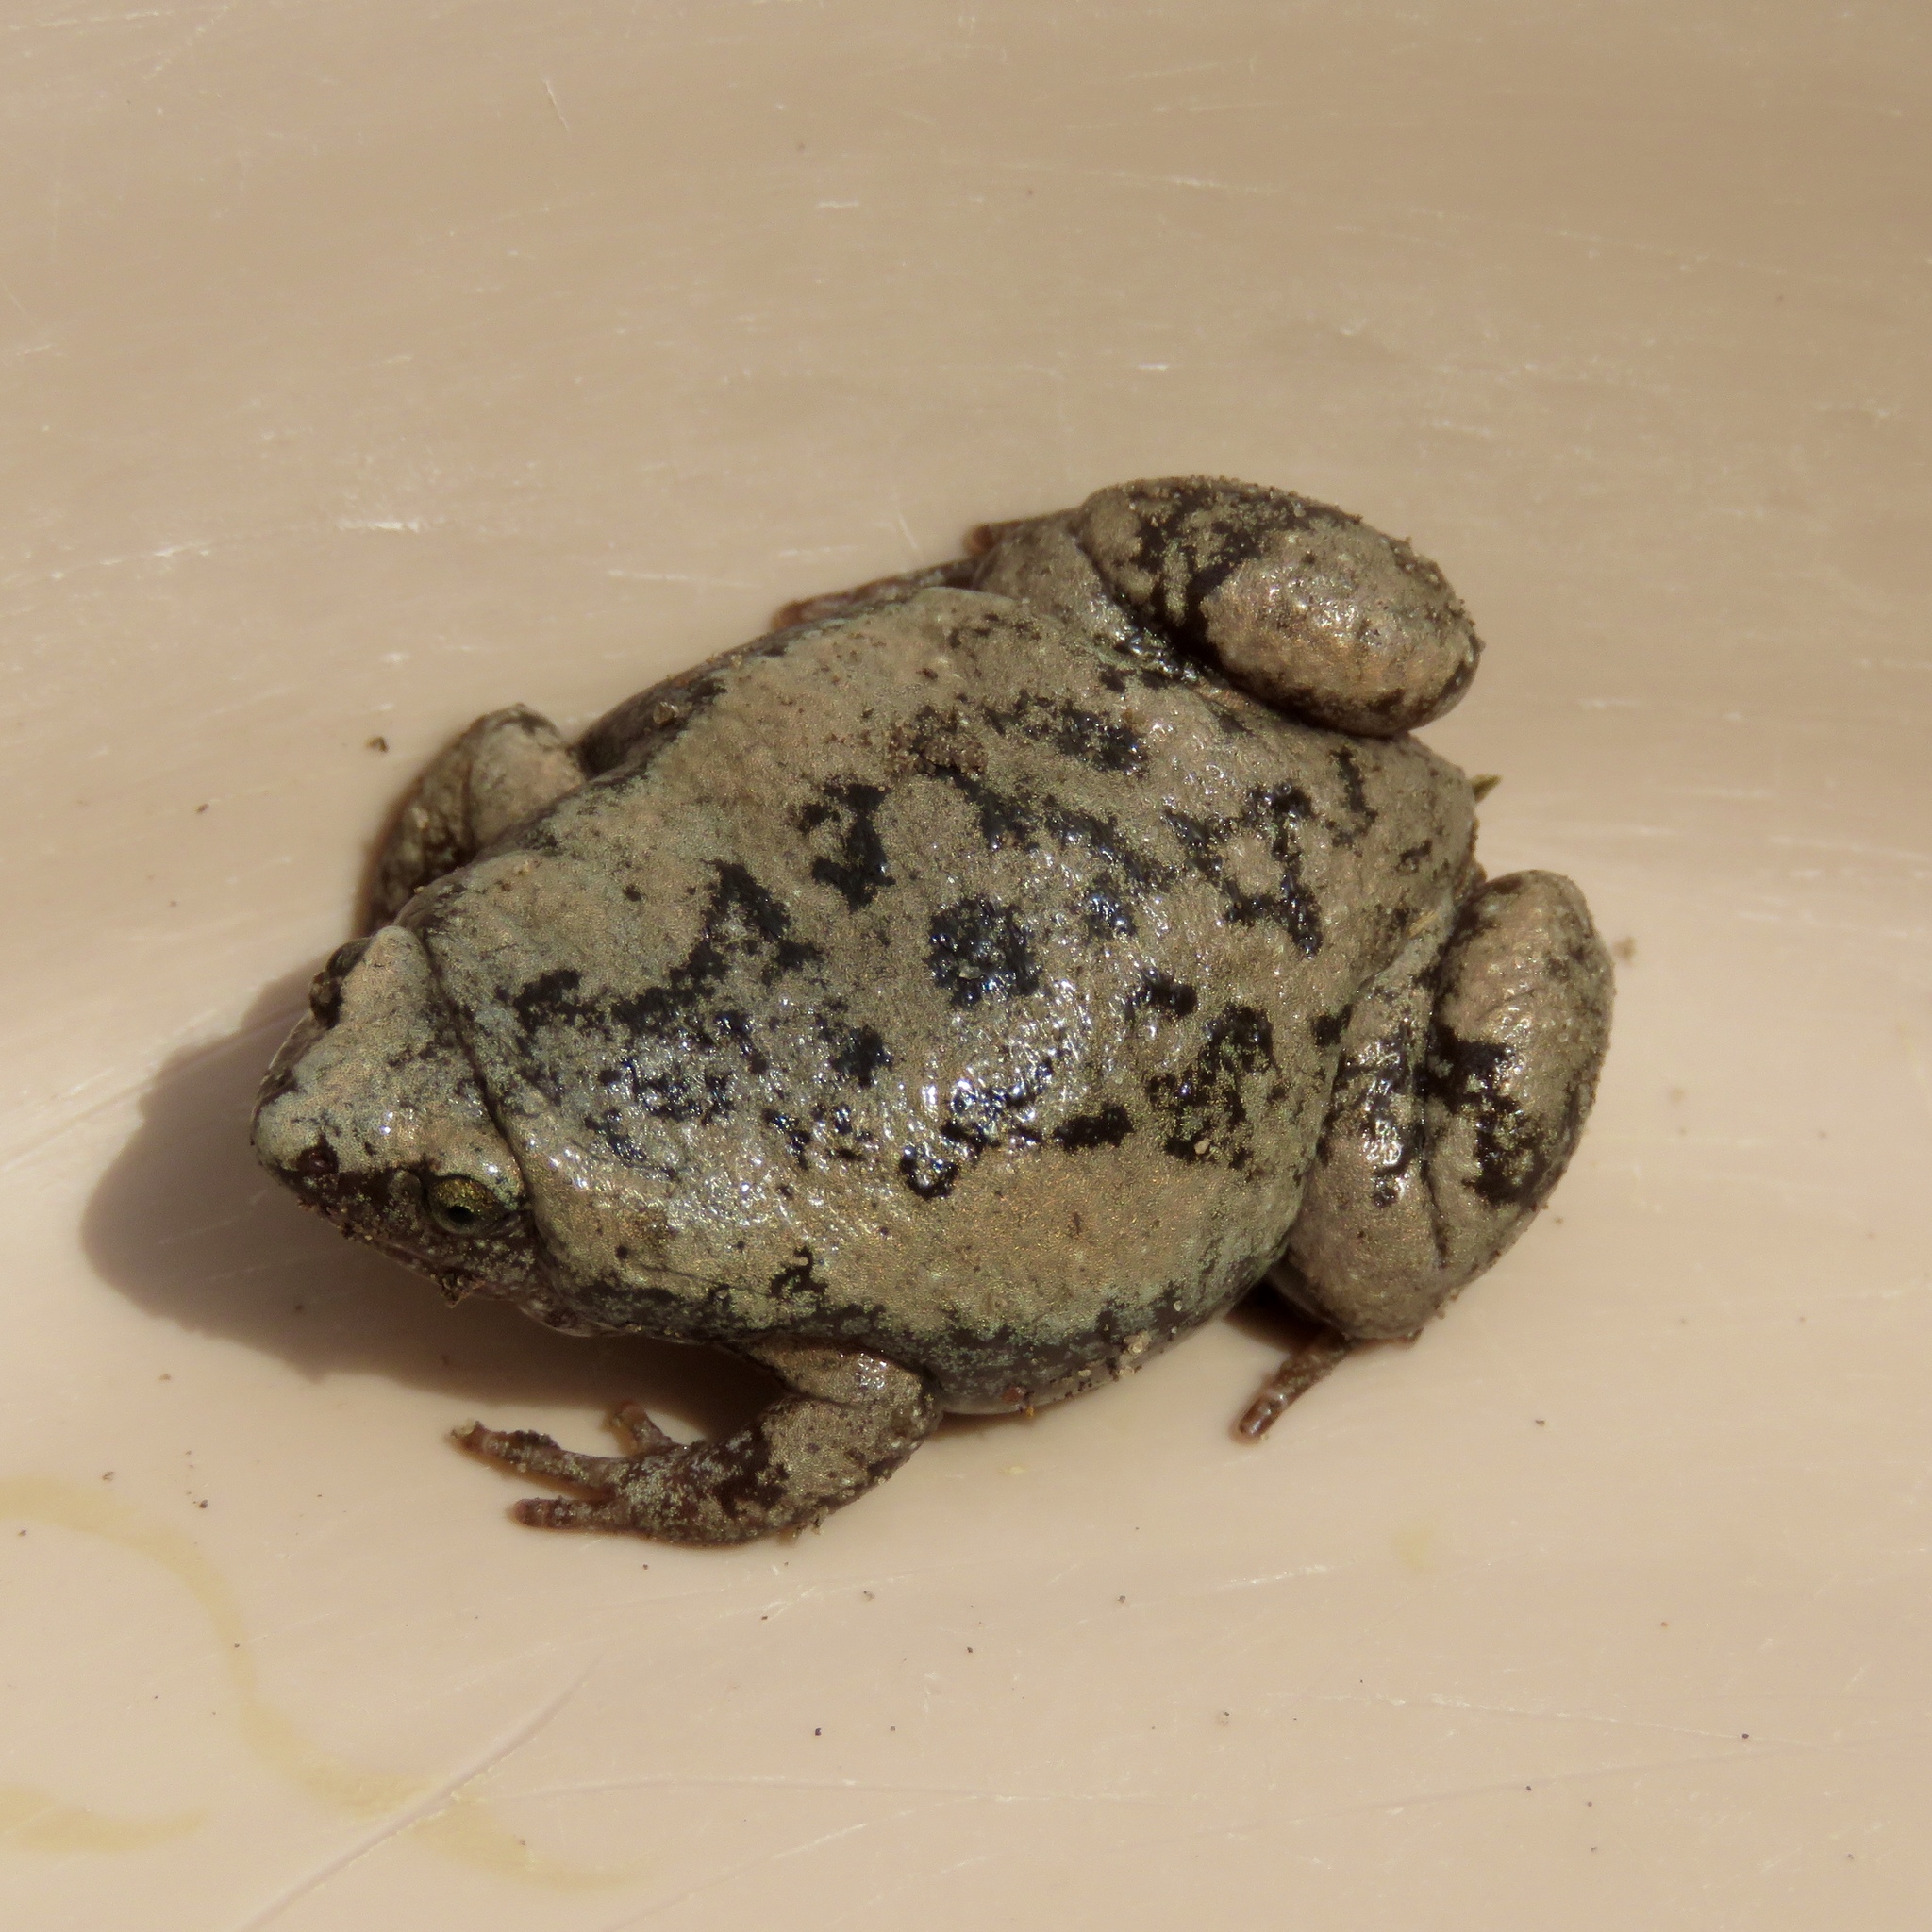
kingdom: Animalia
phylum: Chordata
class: Amphibia
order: Anura
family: Microhylidae
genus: Gastrophryne
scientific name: Gastrophryne carolinensis
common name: Eastern narrowmouth toad
